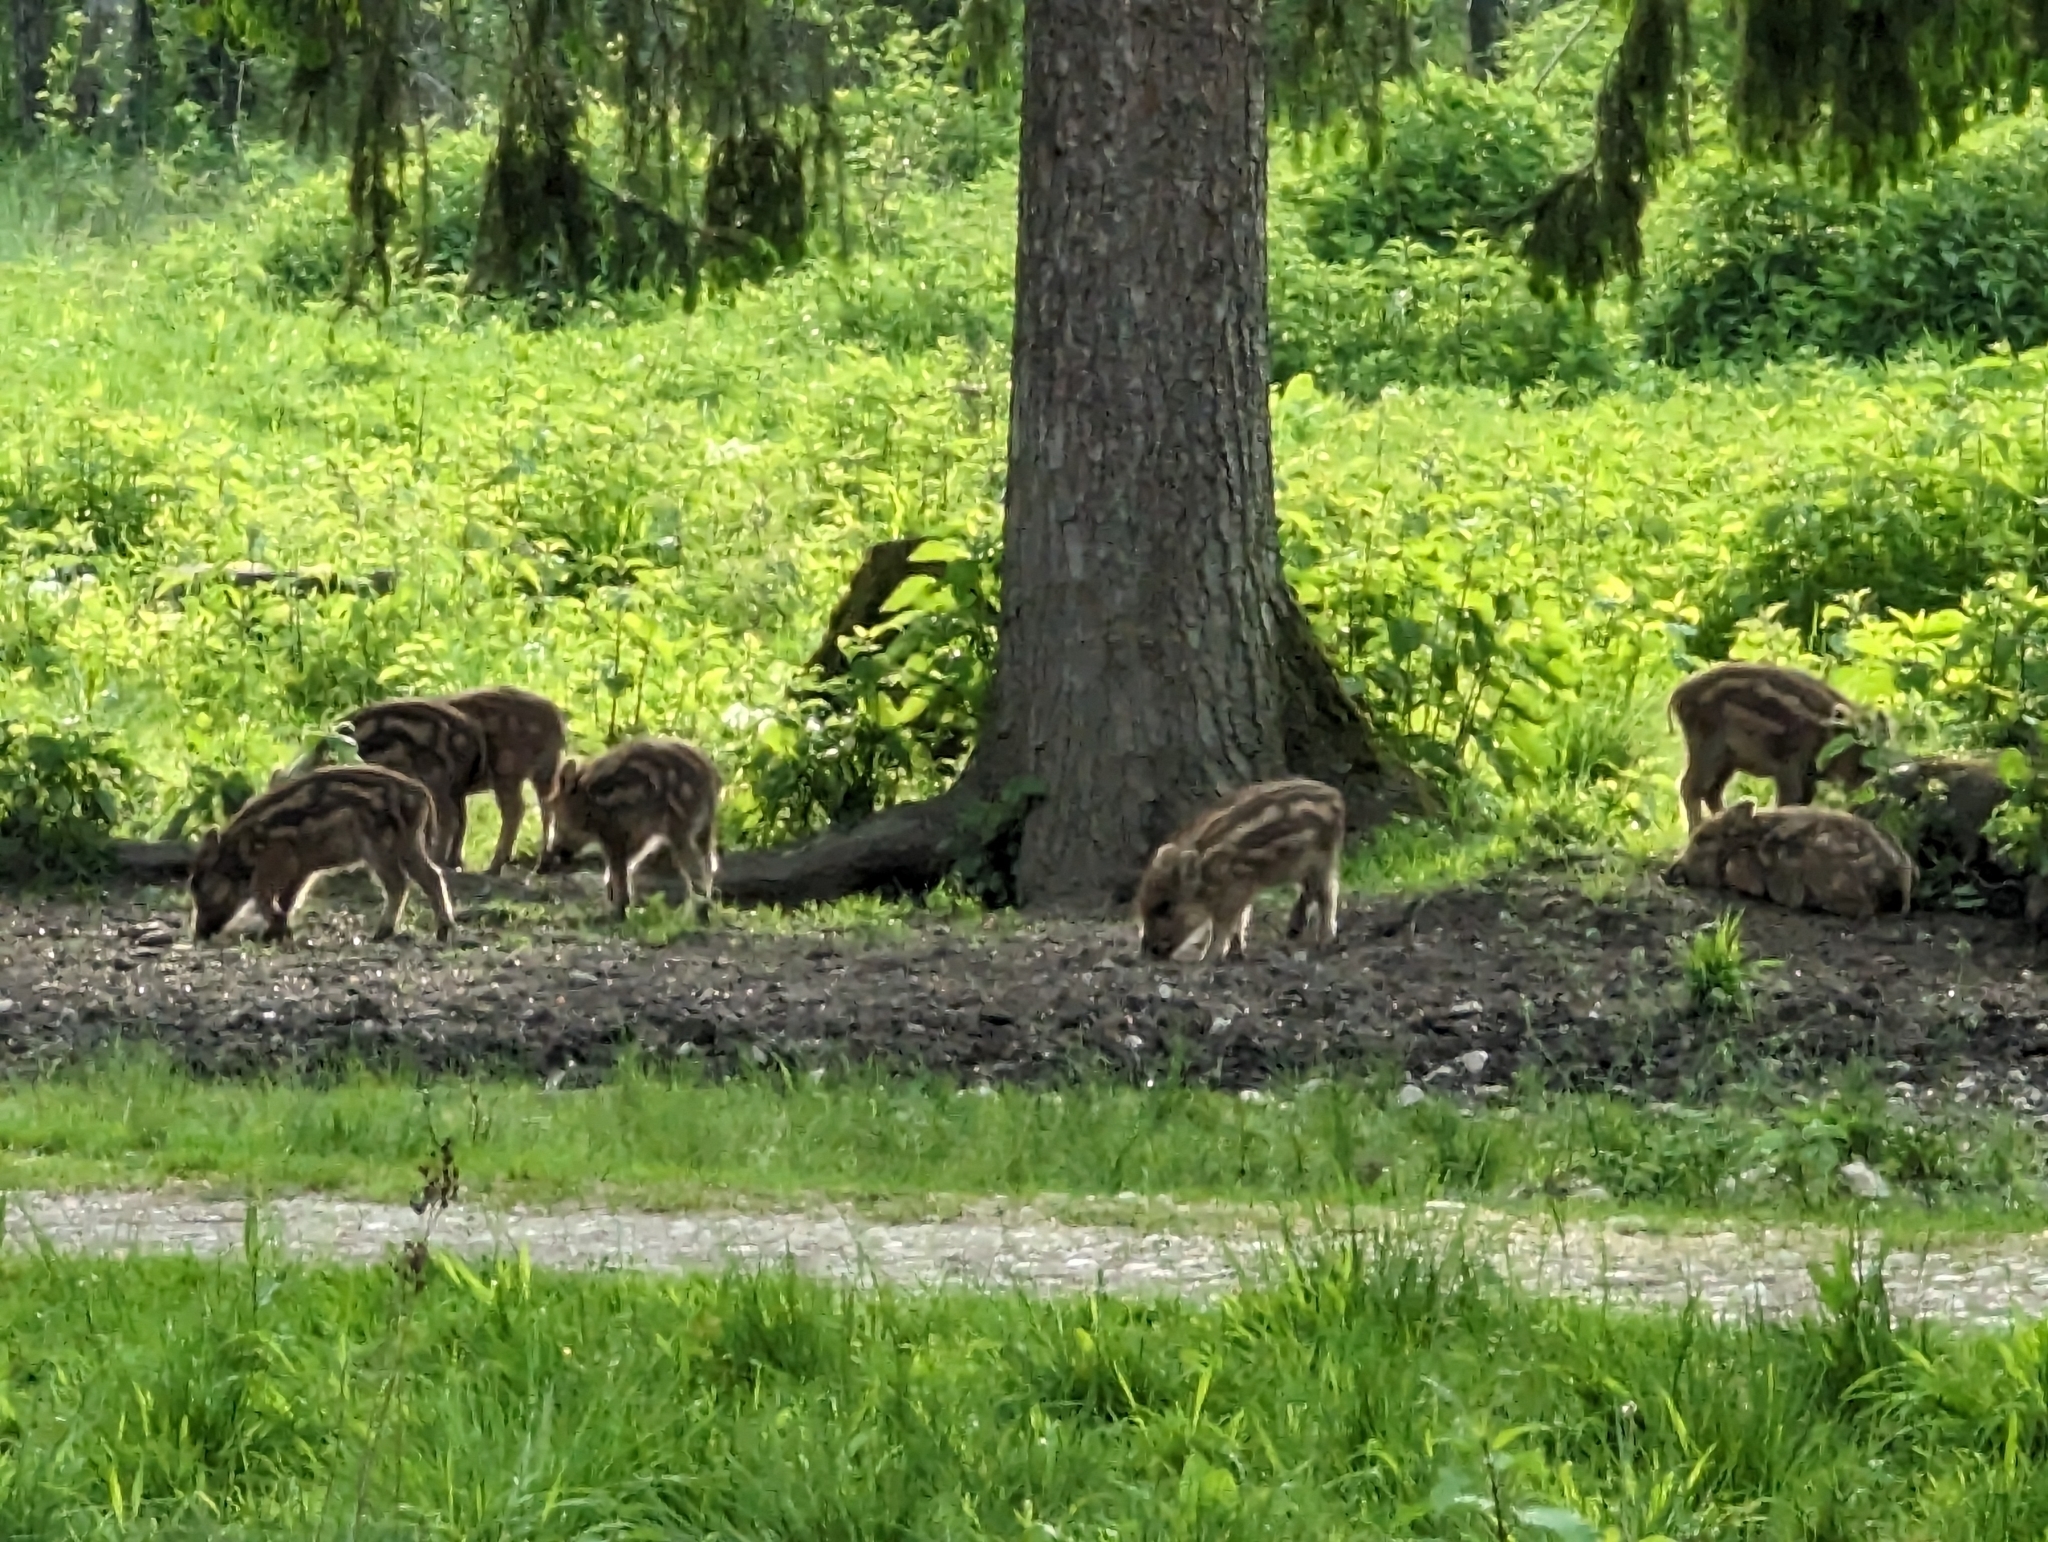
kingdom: Animalia
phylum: Chordata
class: Mammalia
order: Artiodactyla
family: Suidae
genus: Sus
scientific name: Sus scrofa
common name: Wild boar
